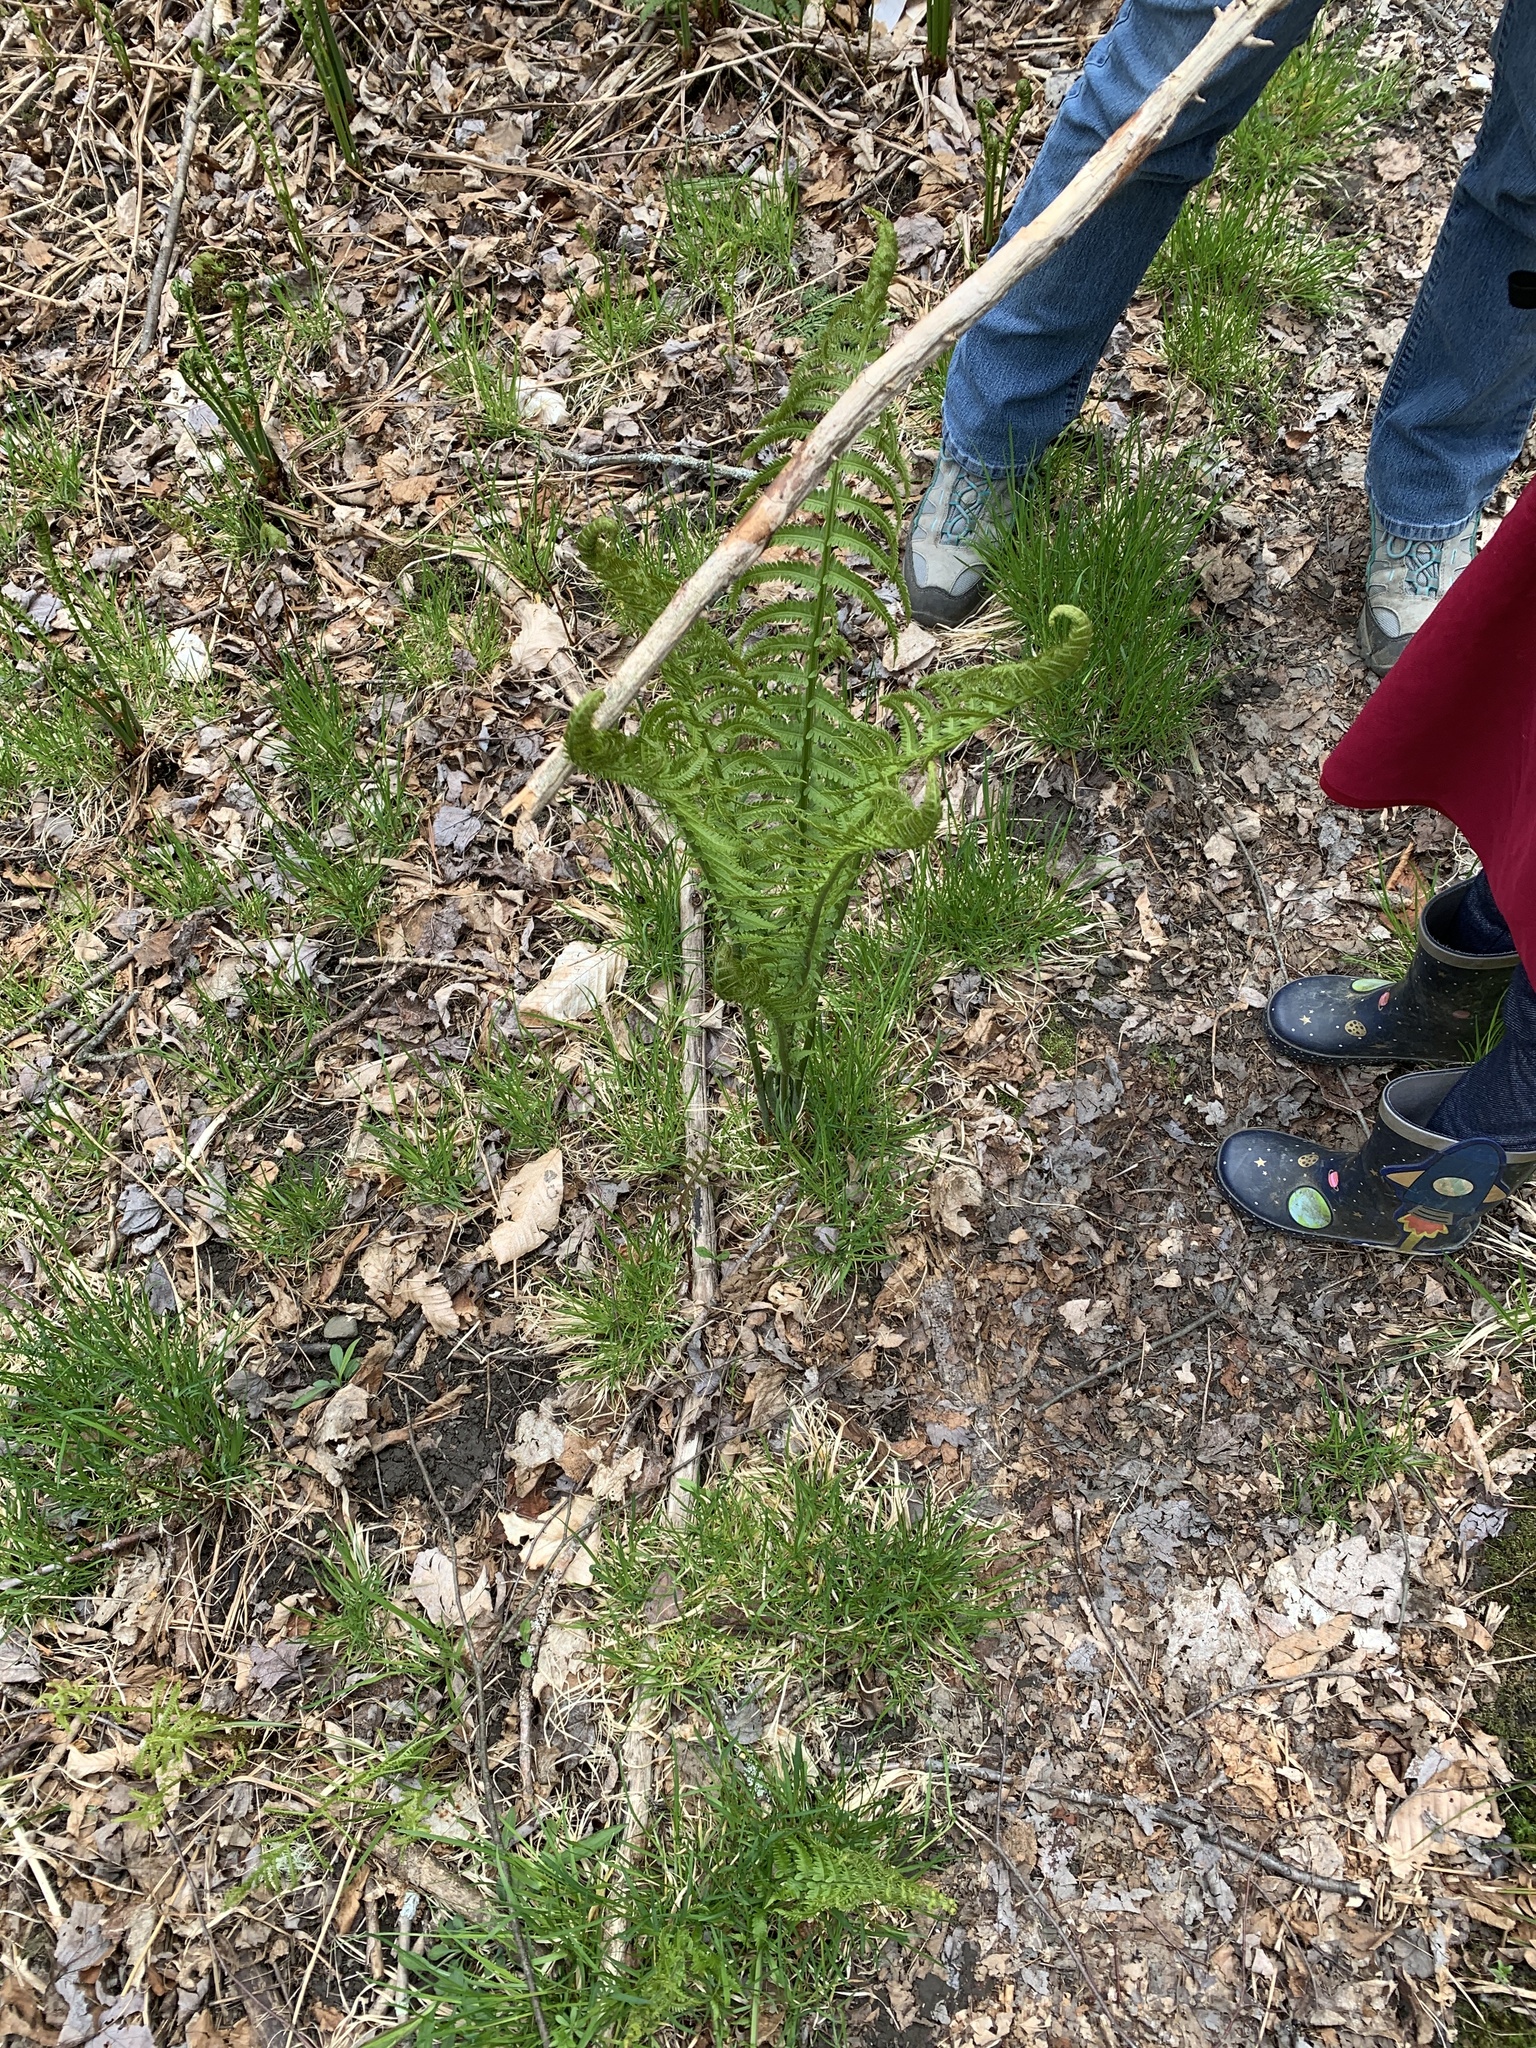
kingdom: Plantae
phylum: Tracheophyta
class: Polypodiopsida
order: Polypodiales
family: Onocleaceae
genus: Matteuccia
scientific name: Matteuccia struthiopteris
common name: Ostrich fern
